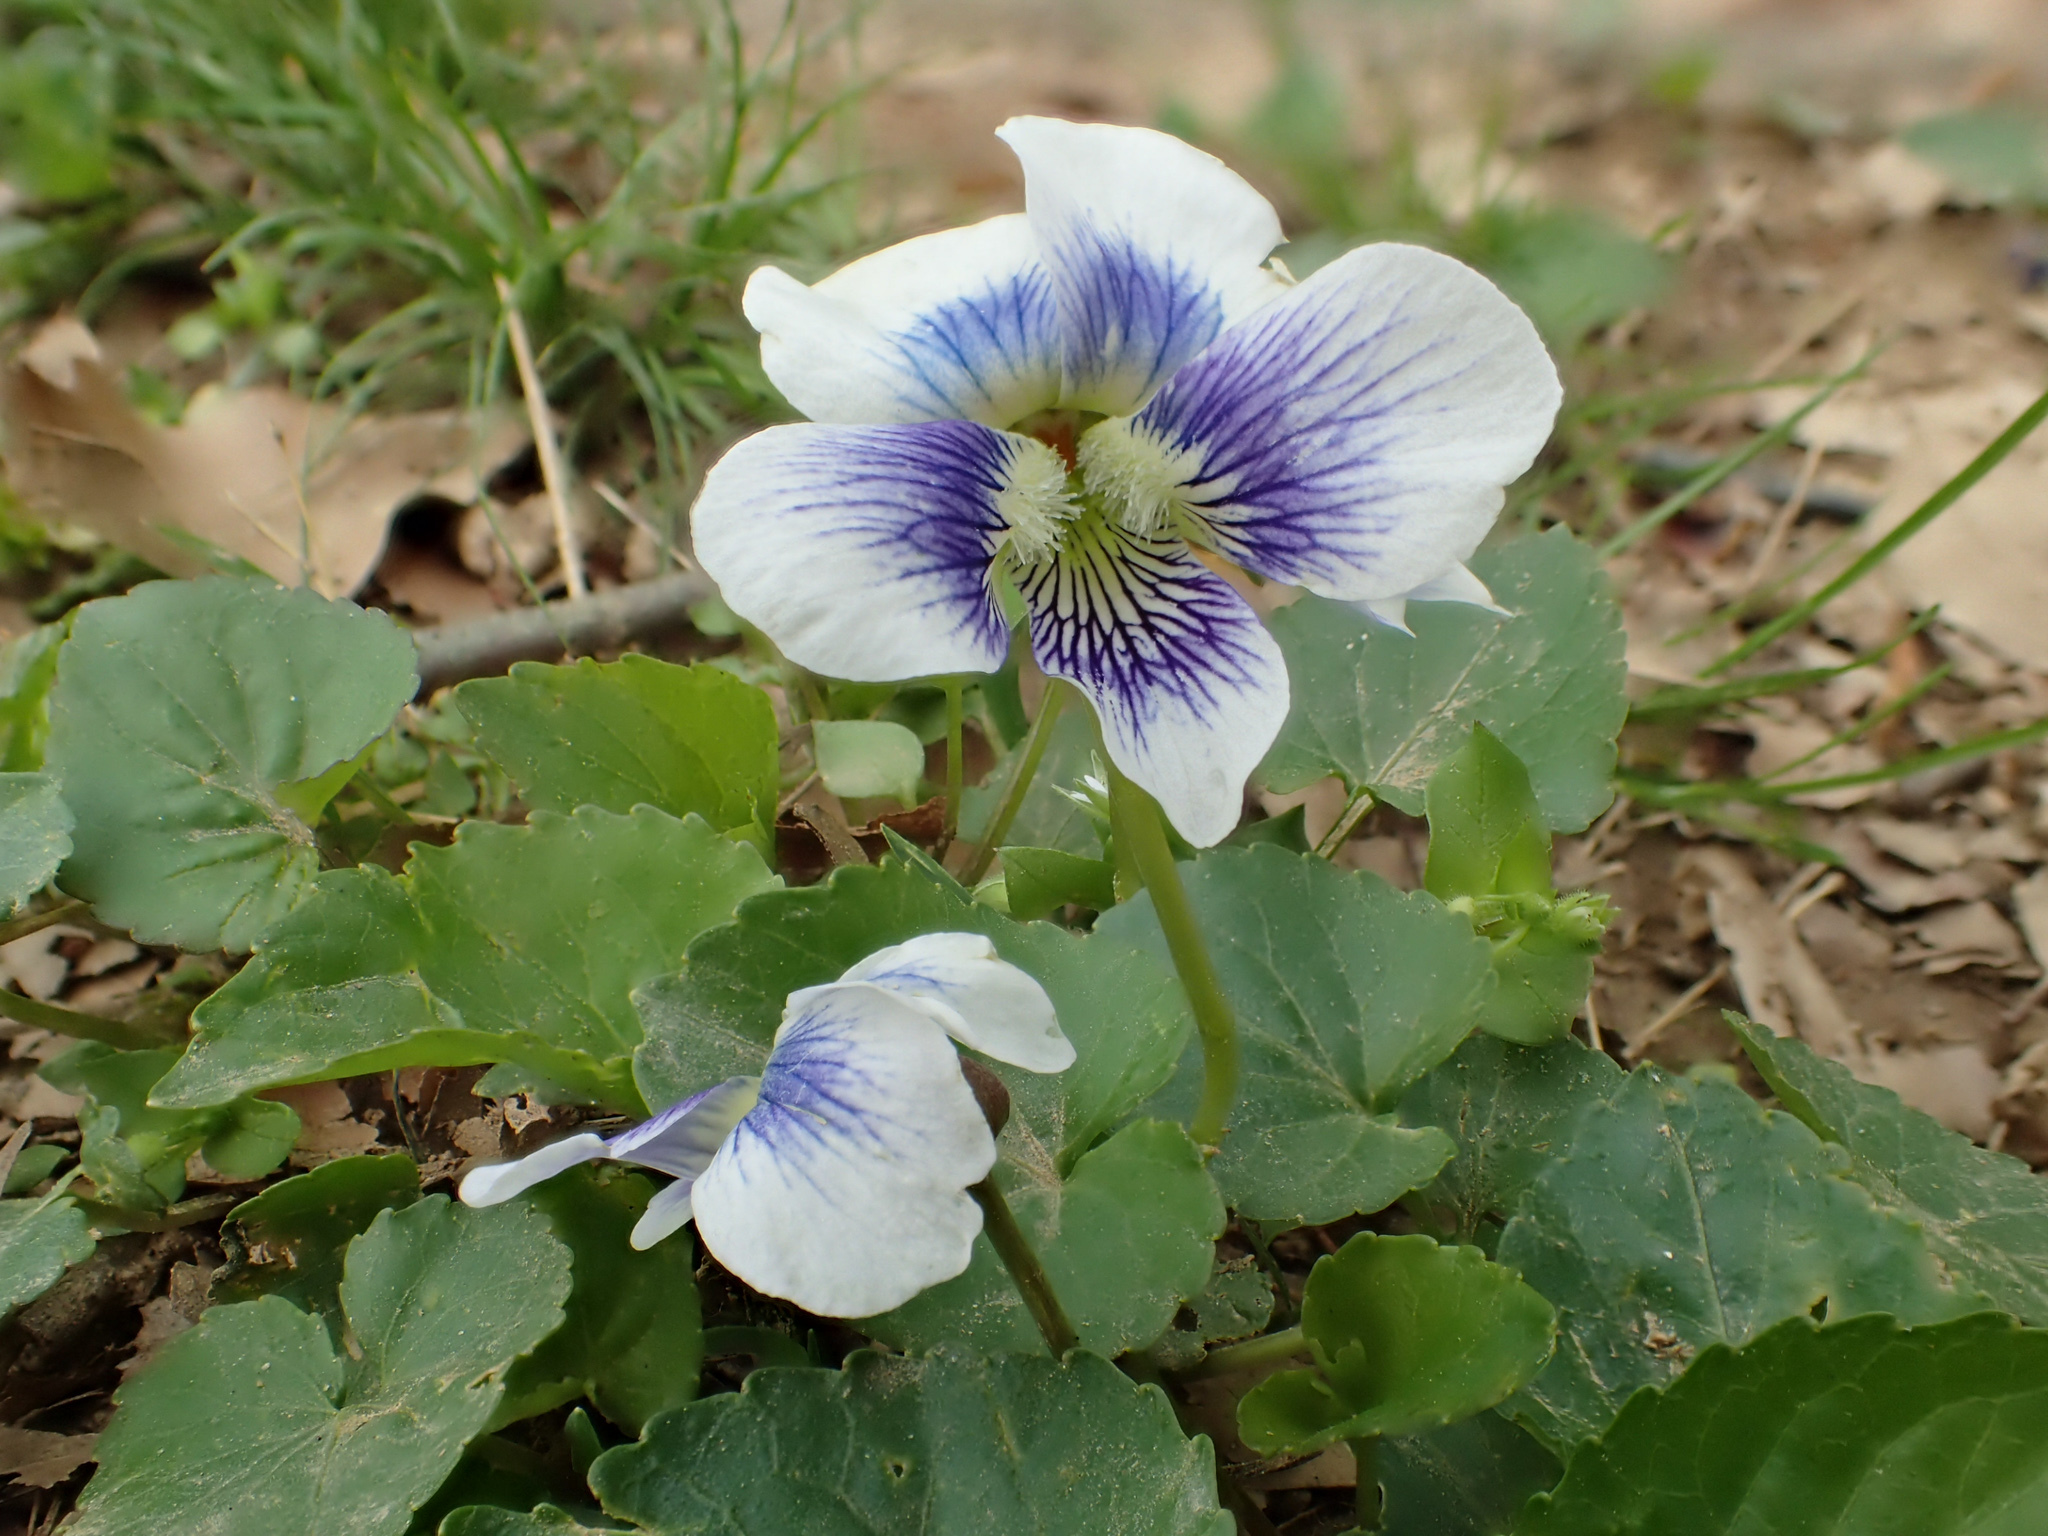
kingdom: Plantae
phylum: Tracheophyta
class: Magnoliopsida
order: Malpighiales
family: Violaceae
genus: Viola
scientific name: Viola sororia
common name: Dooryard violet
